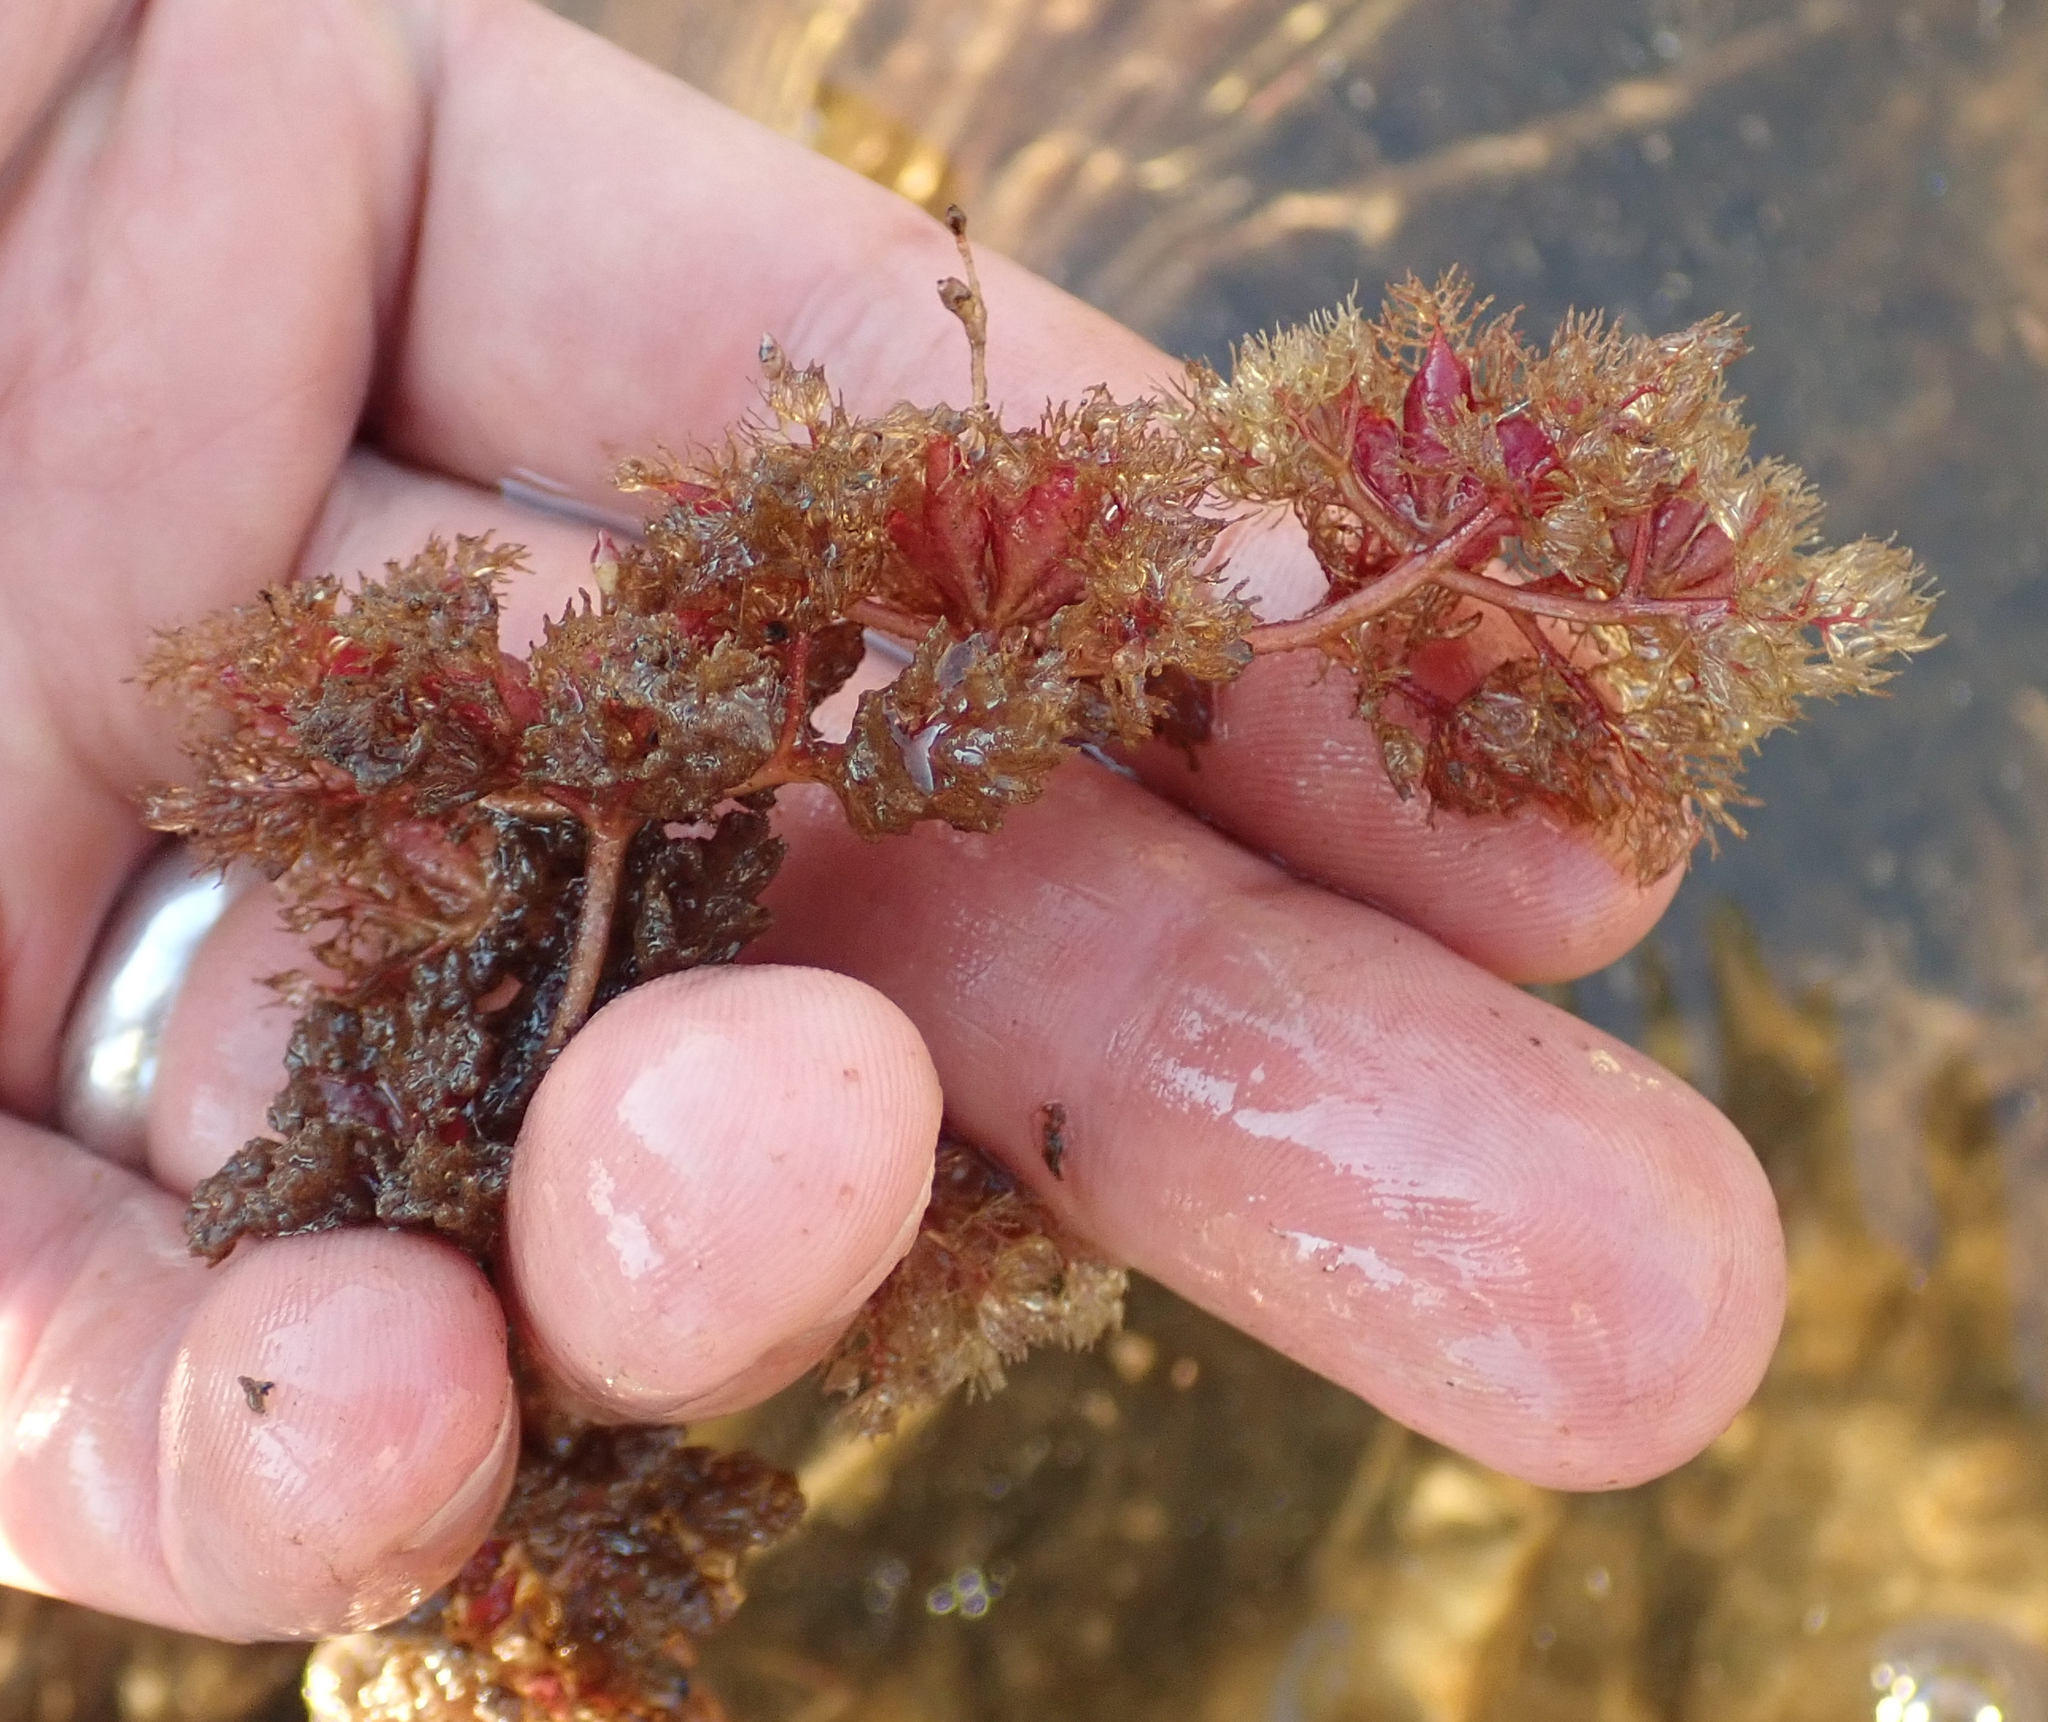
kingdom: Plantae
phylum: Tracheophyta
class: Magnoliopsida
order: Lamiales
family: Lentibulariaceae
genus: Utricularia
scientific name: Utricularia benjaminiana
